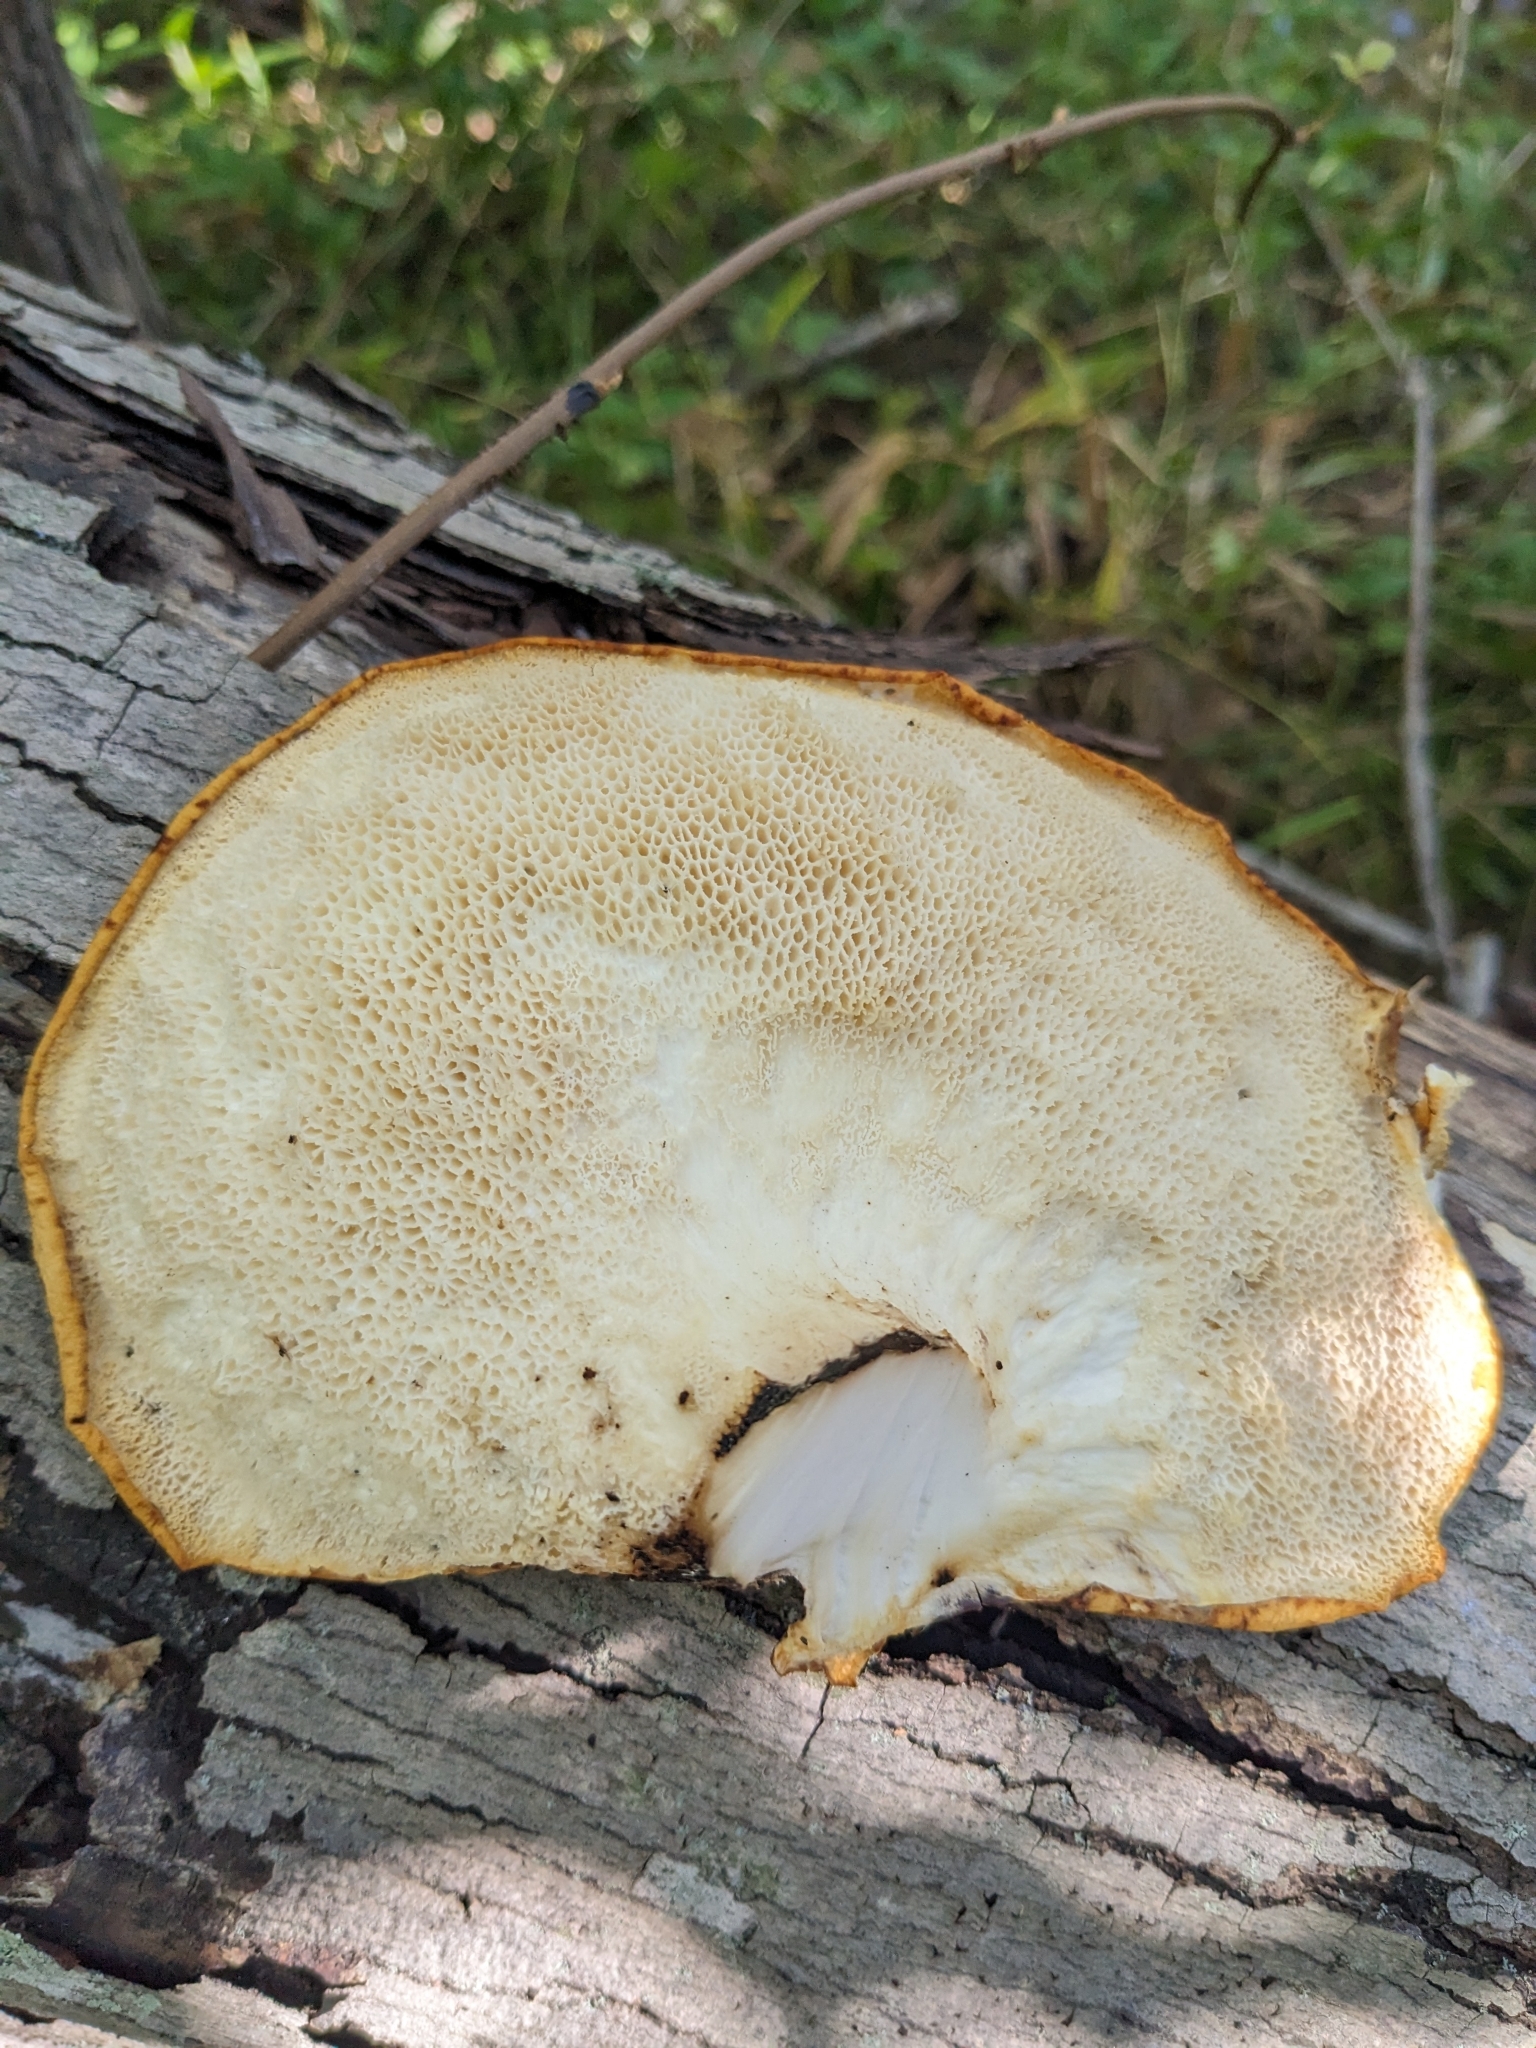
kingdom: Fungi
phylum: Basidiomycota
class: Agaricomycetes
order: Polyporales
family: Polyporaceae
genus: Cerioporus
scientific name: Cerioporus squamosus
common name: Dryad's saddle
